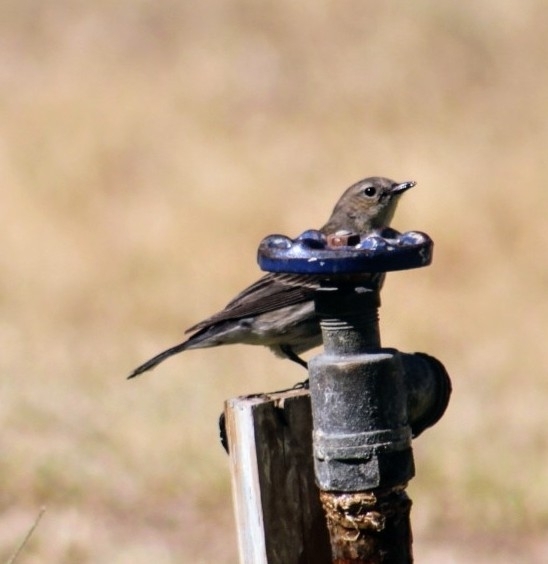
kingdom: Animalia
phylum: Chordata
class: Aves
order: Passeriformes
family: Parulidae
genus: Setophaga
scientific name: Setophaga coronata
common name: Myrtle warbler
